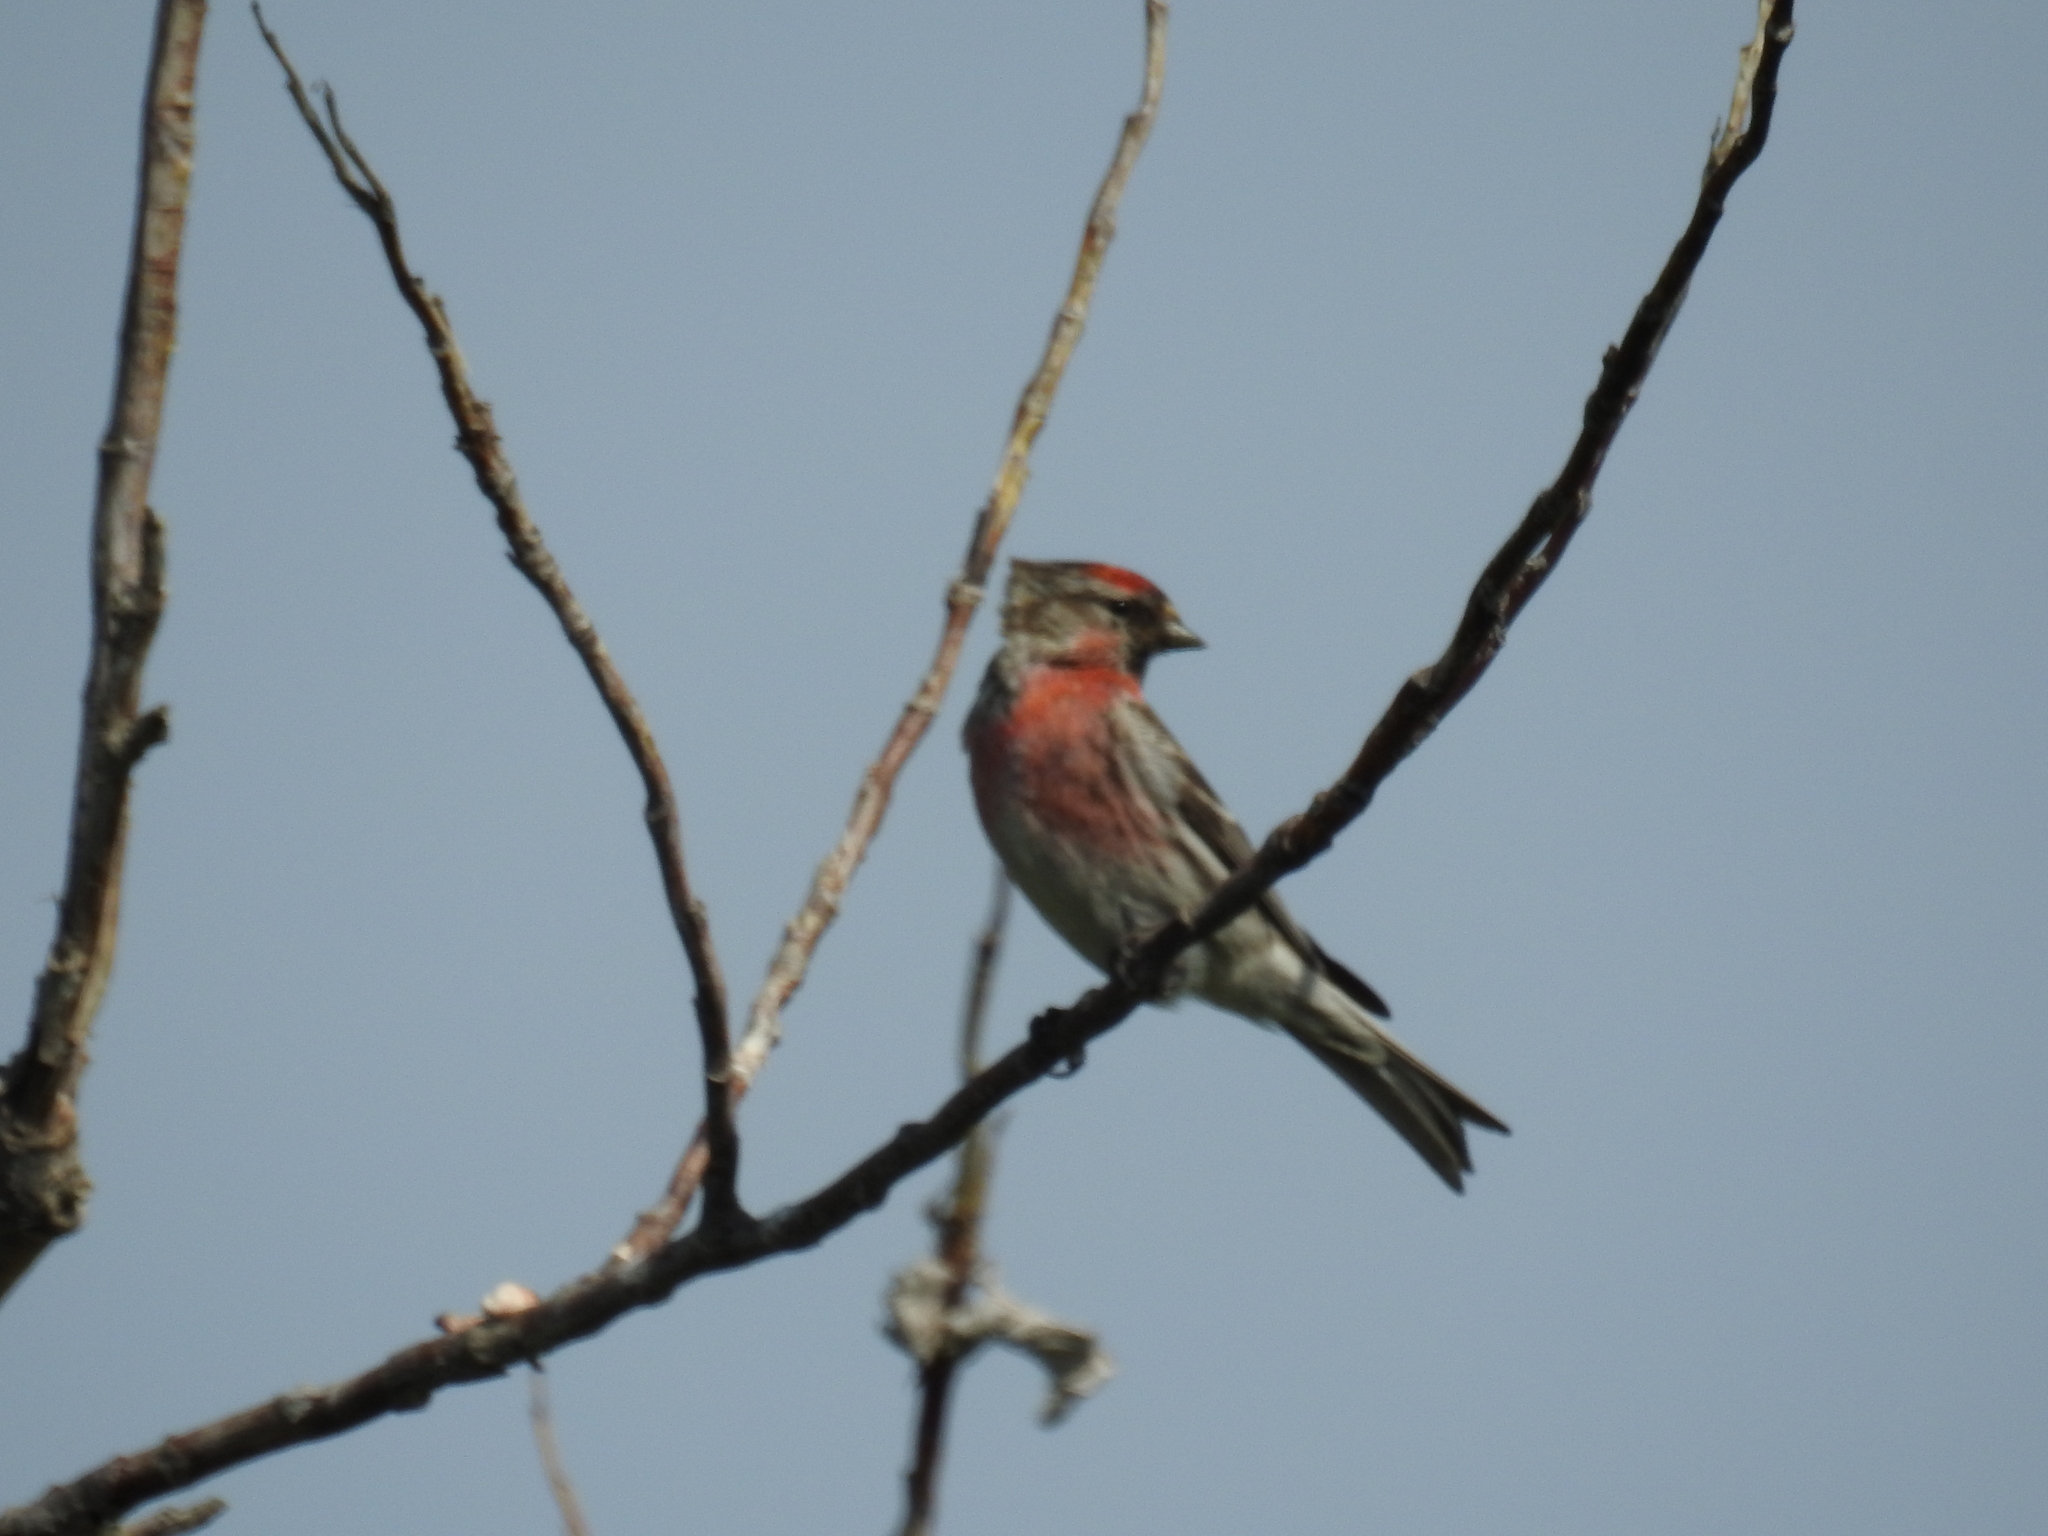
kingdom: Animalia
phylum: Chordata
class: Aves
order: Passeriformes
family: Fringillidae
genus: Acanthis
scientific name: Acanthis flammea
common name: Common redpoll
